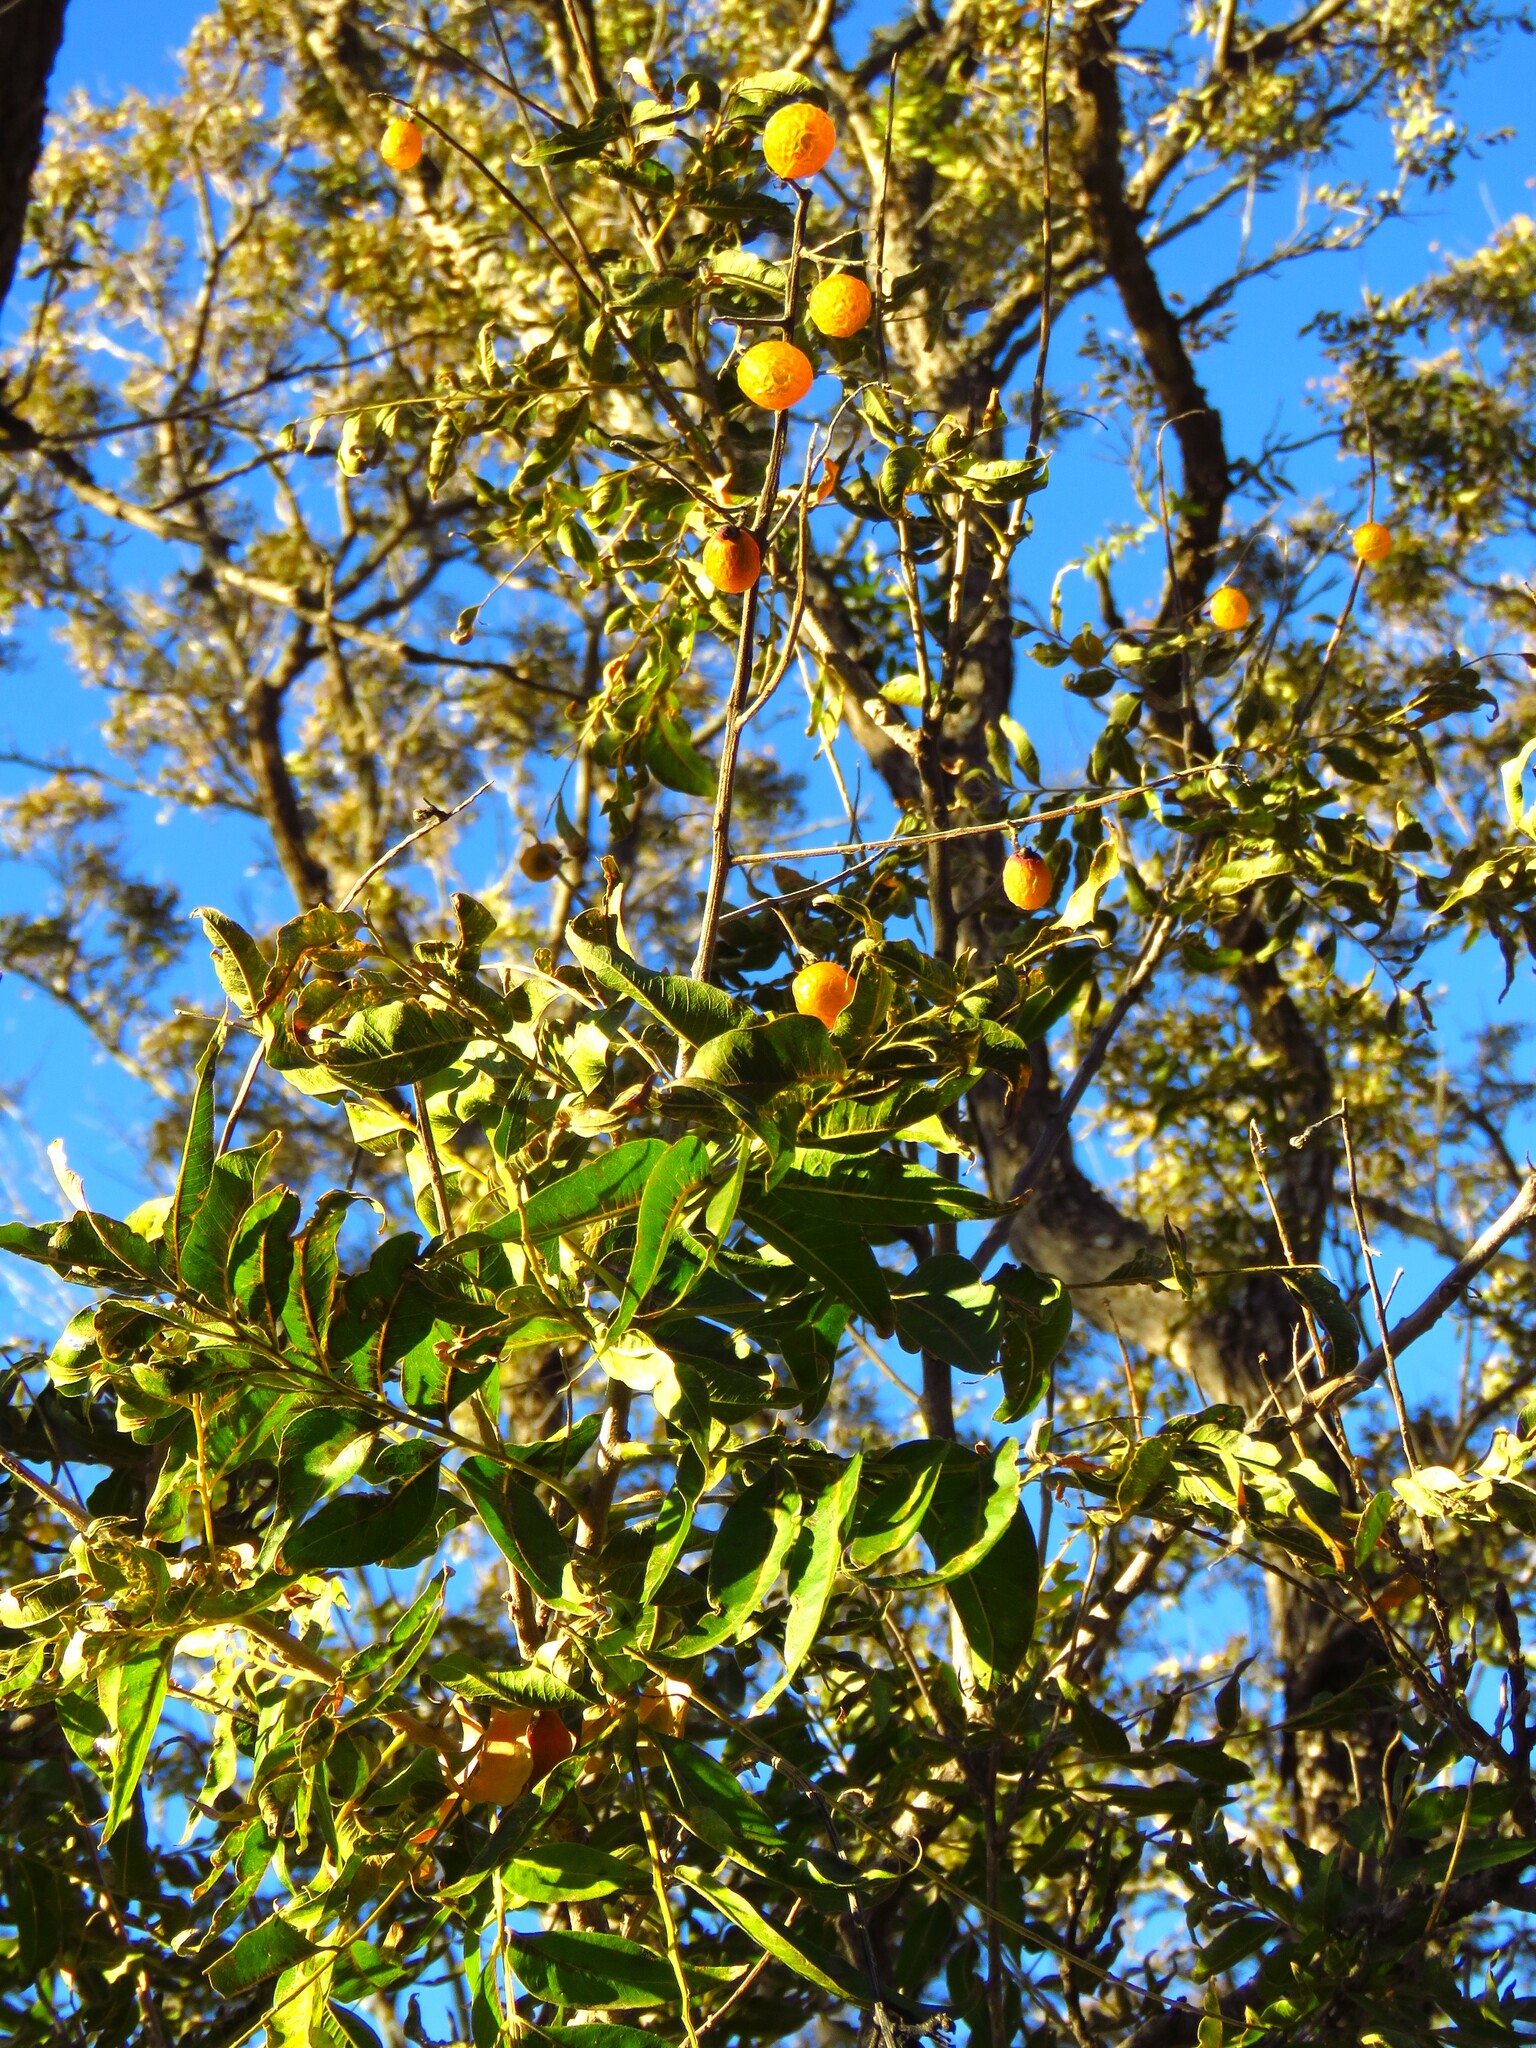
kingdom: Plantae
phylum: Tracheophyta
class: Magnoliopsida
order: Sapindales
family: Sapindaceae
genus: Sapindus
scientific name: Sapindus drummondii
